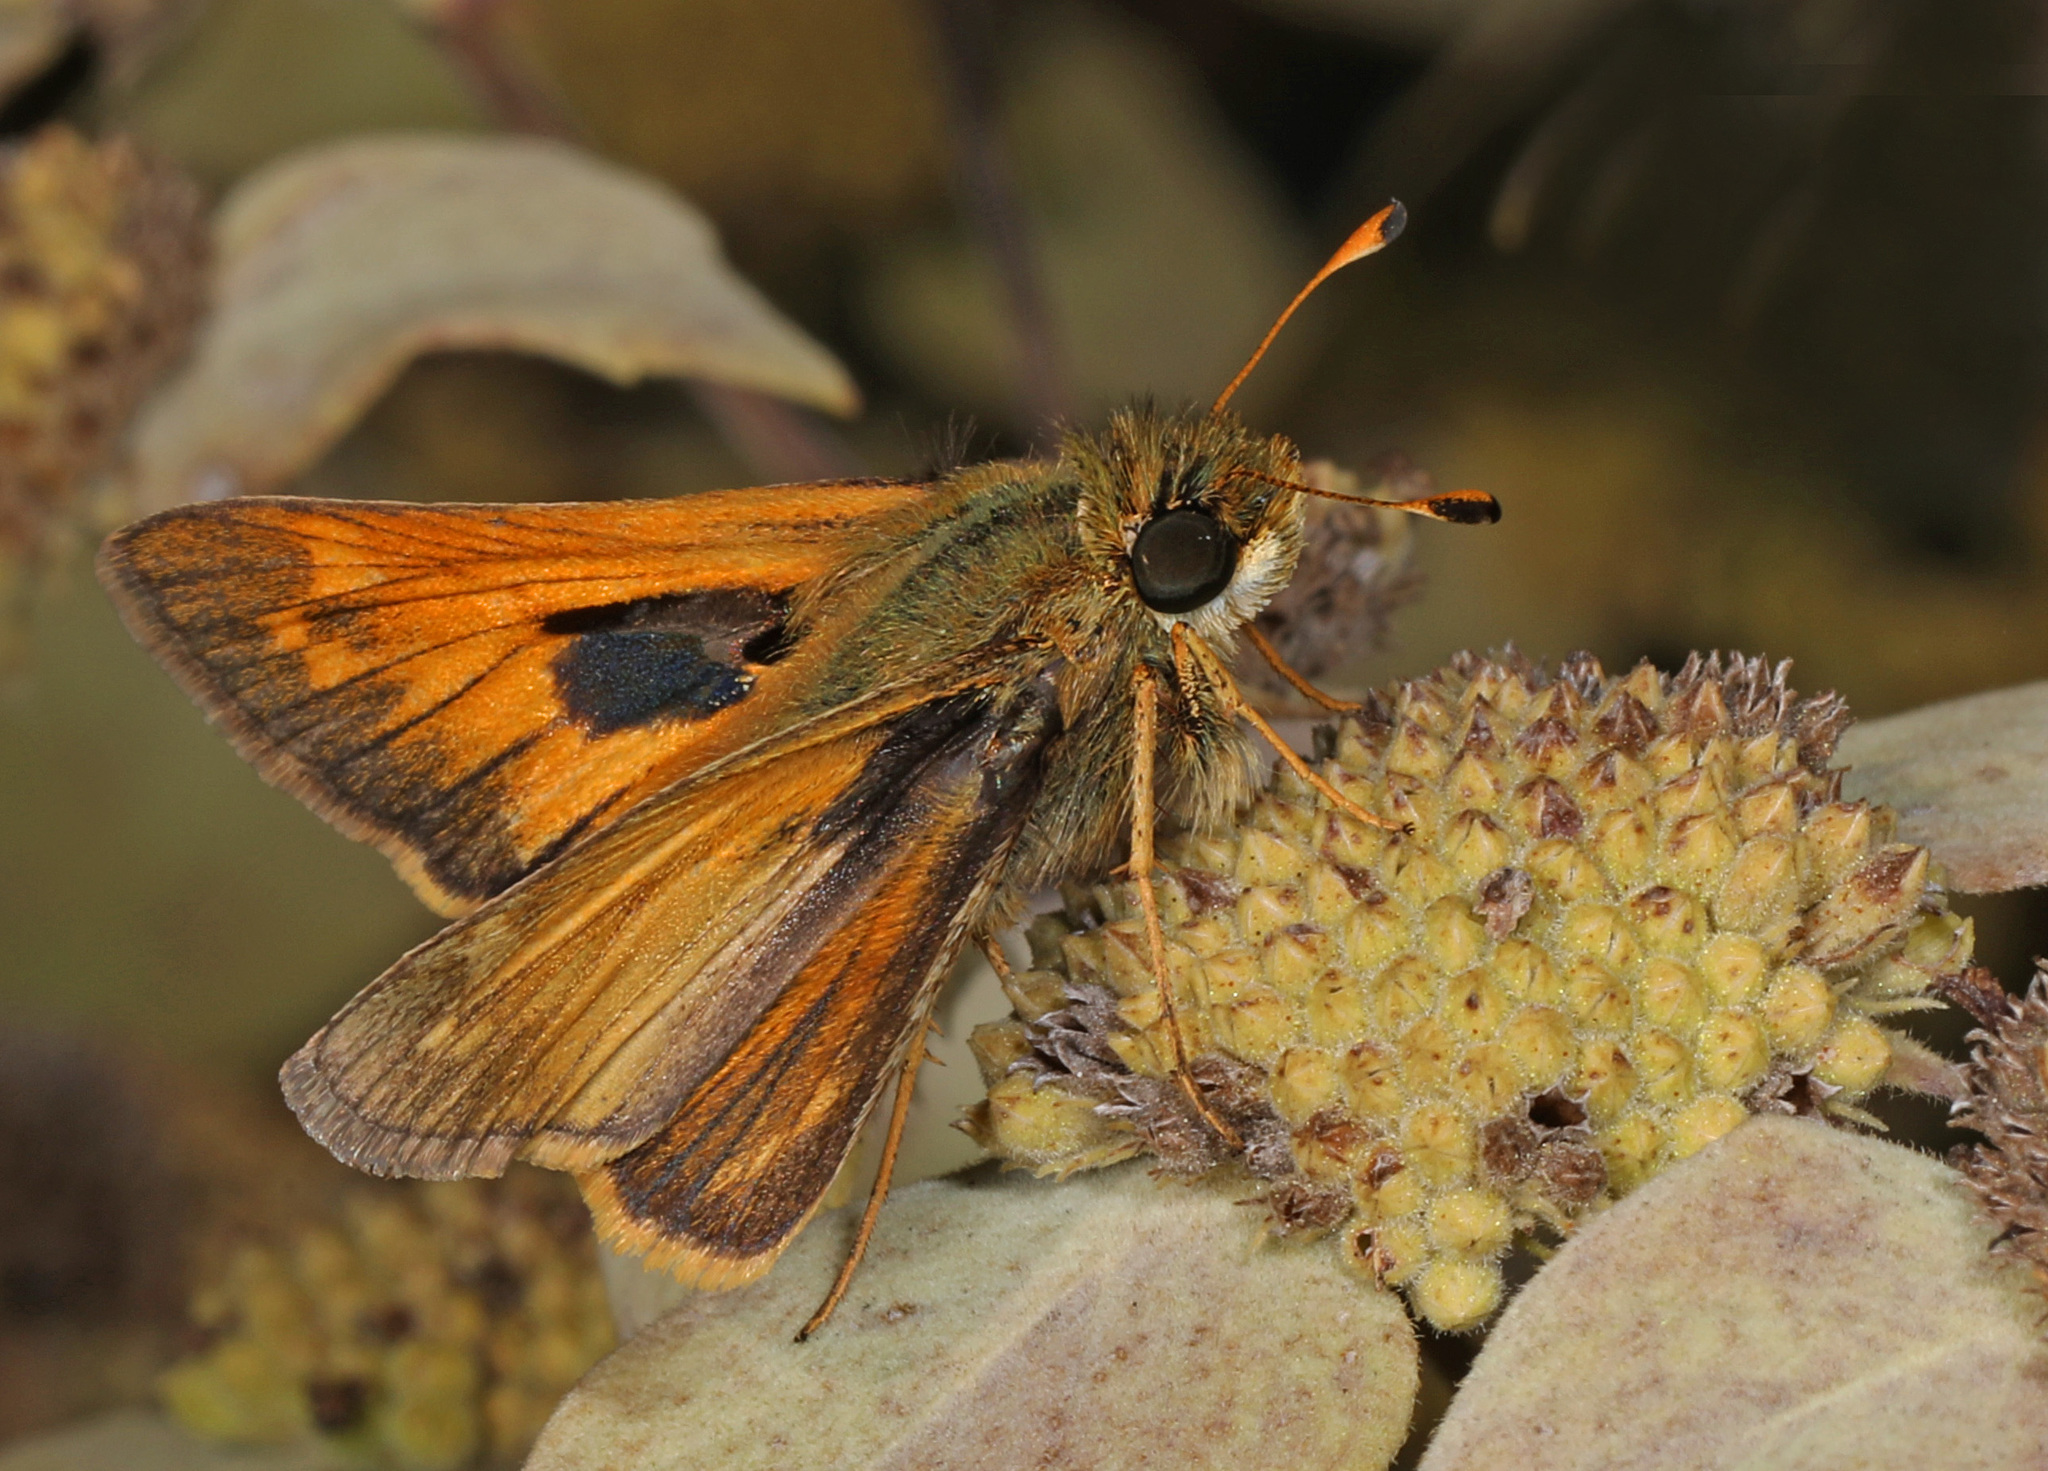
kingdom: Animalia
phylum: Arthropoda
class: Insecta
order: Lepidoptera
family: Hesperiidae
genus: Atalopedes
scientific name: Atalopedes
